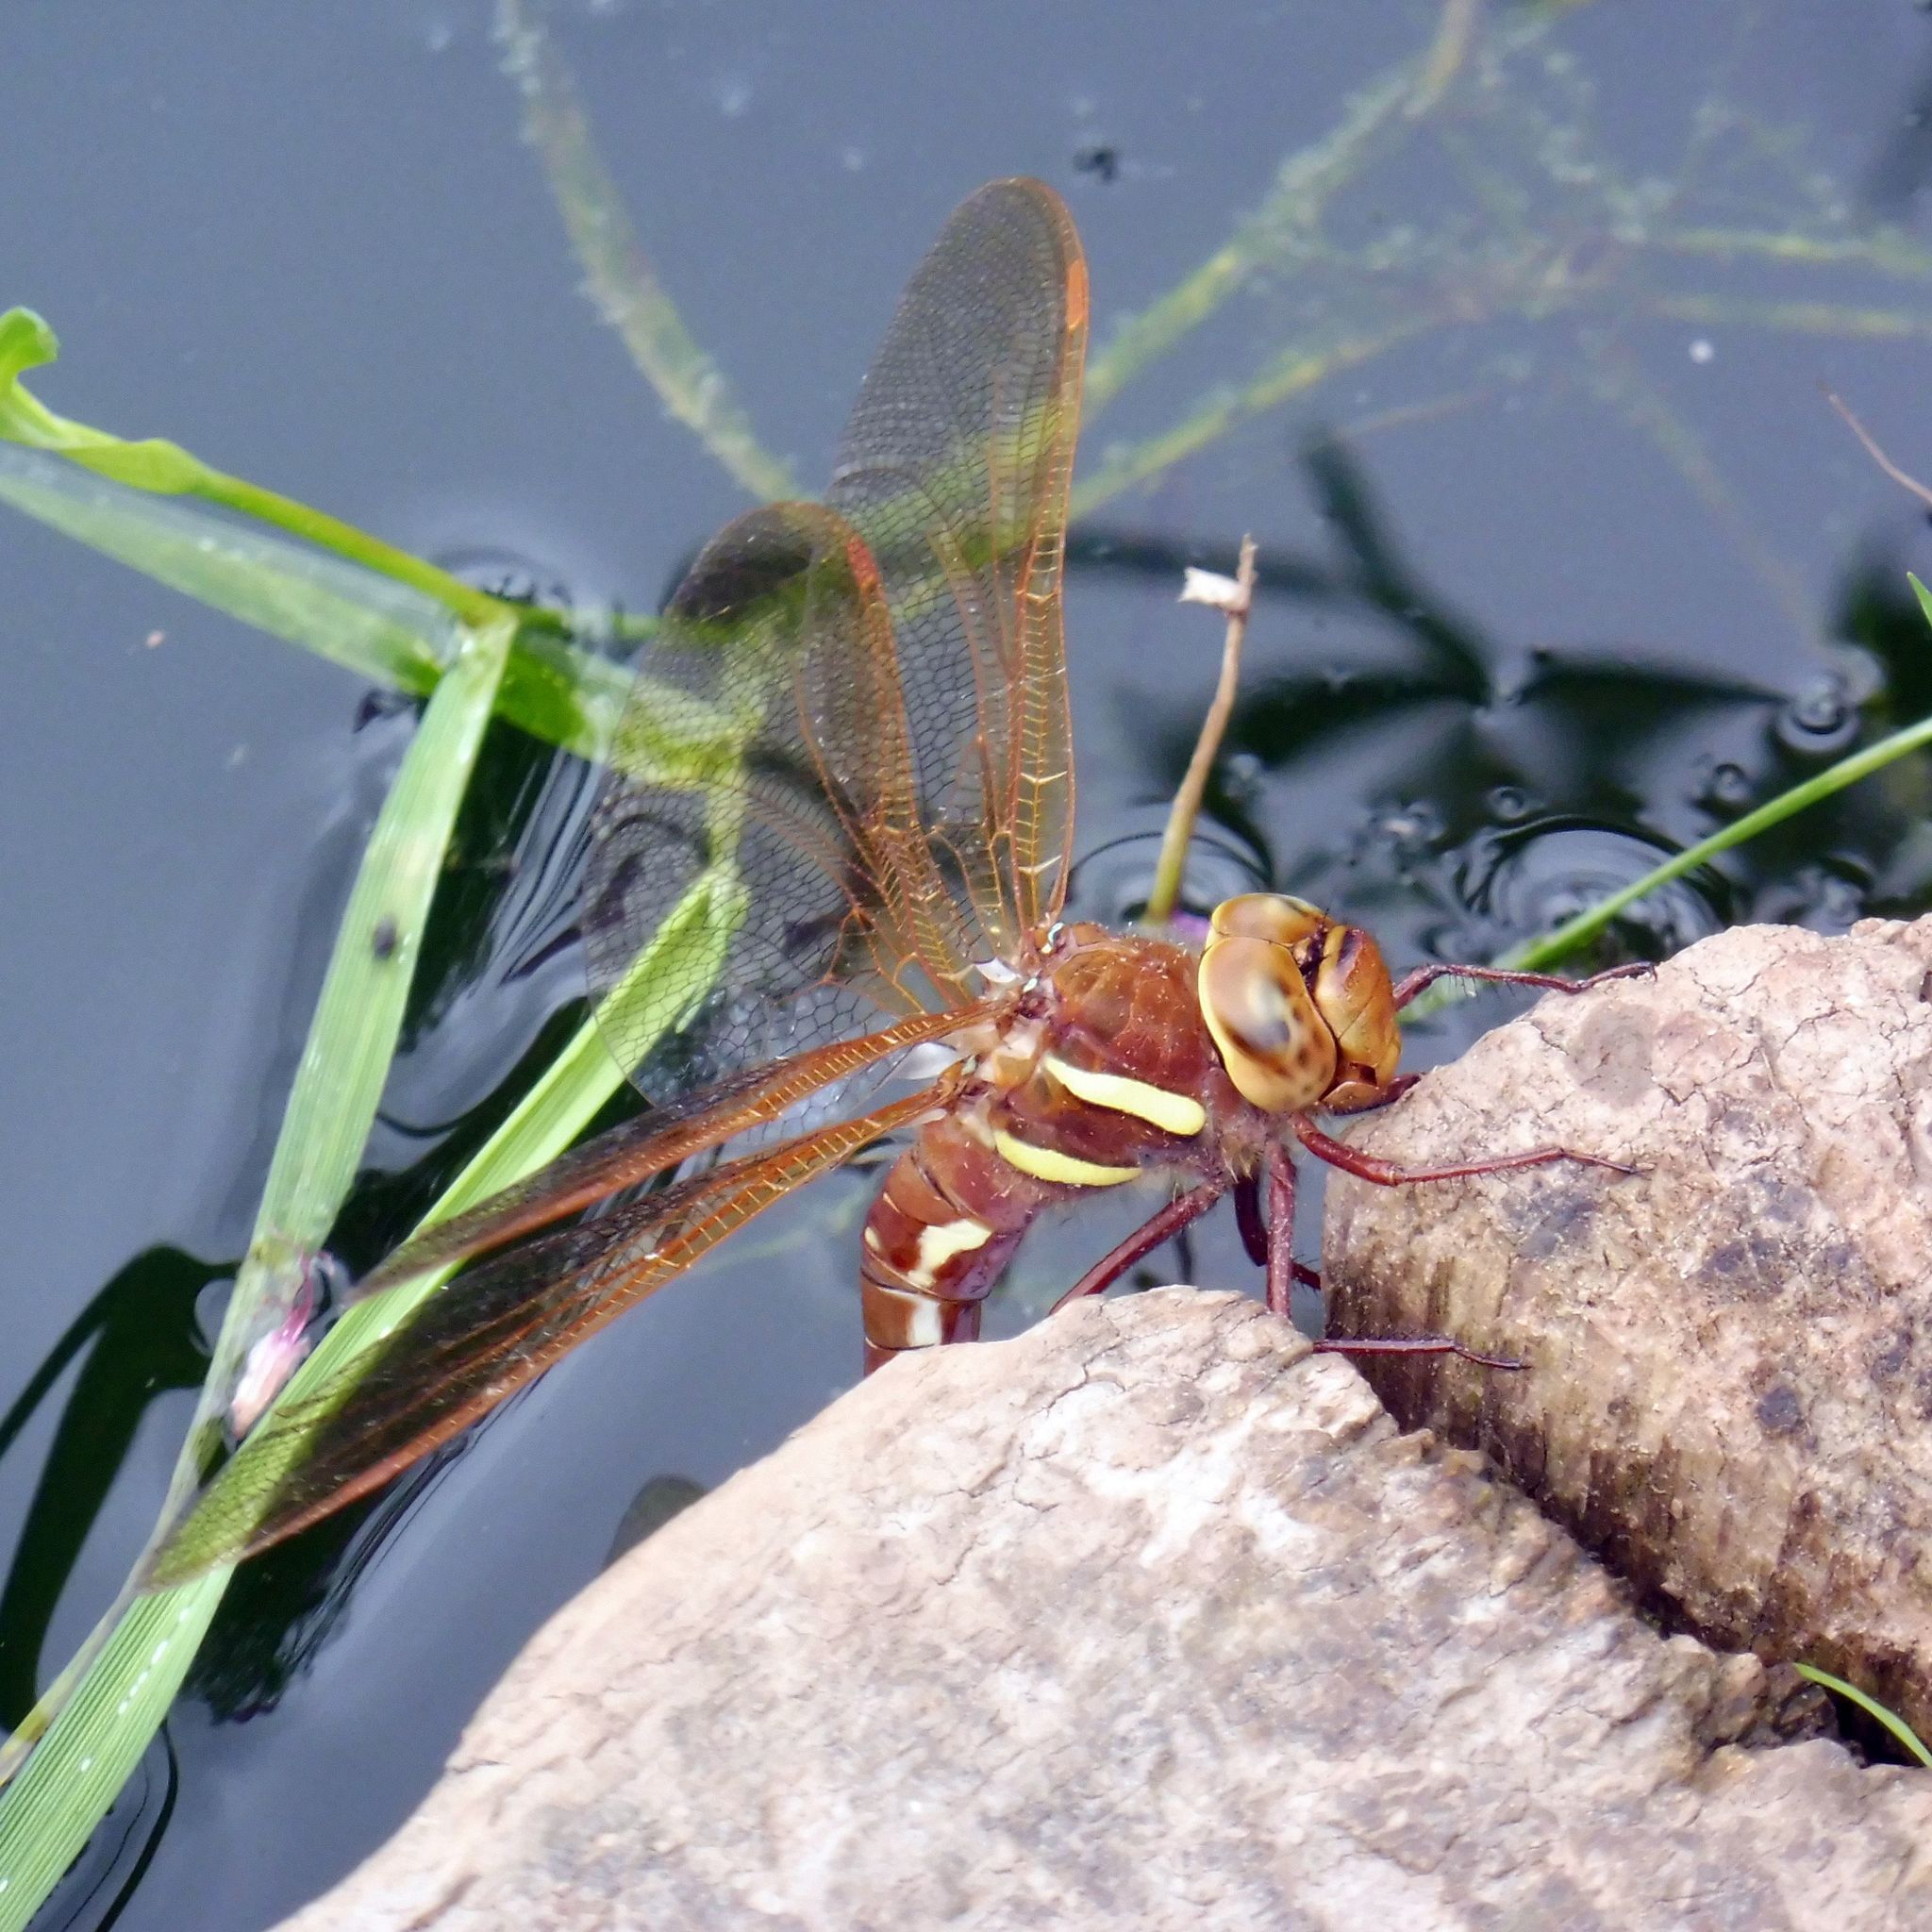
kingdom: Animalia
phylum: Arthropoda
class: Insecta
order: Odonata
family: Aeshnidae
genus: Aeshna
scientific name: Aeshna grandis
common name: Brown hawker
